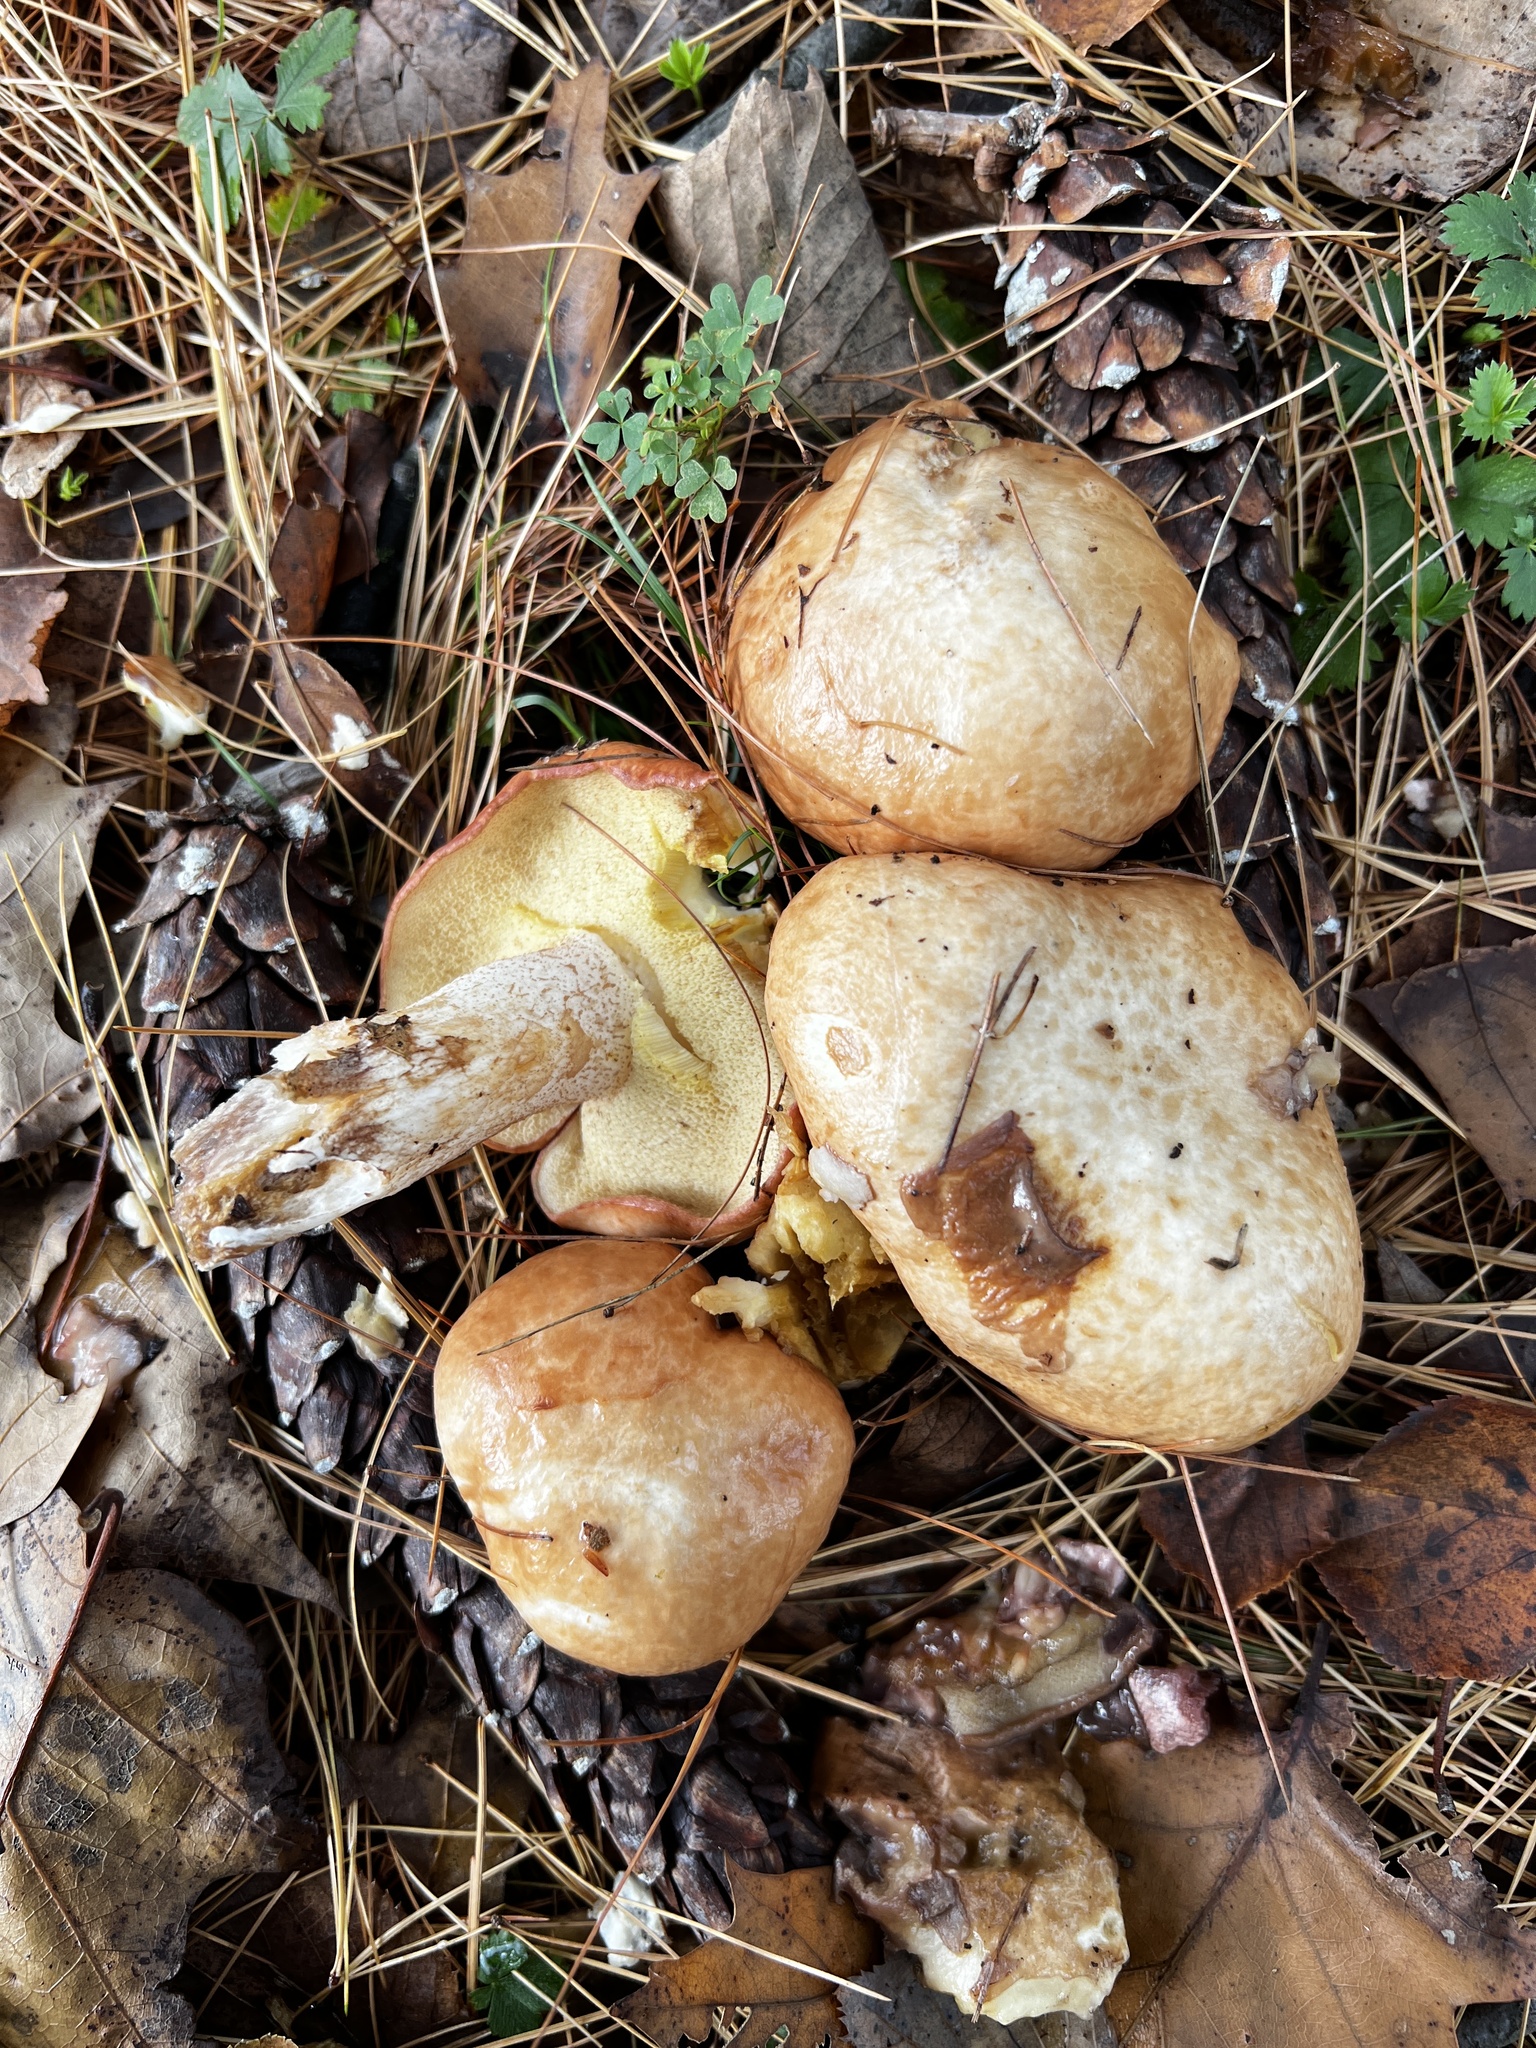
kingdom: Fungi
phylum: Basidiomycota
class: Agaricomycetes
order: Boletales
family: Suillaceae
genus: Fuscoboletinus
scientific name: Fuscoboletinus weaverae
